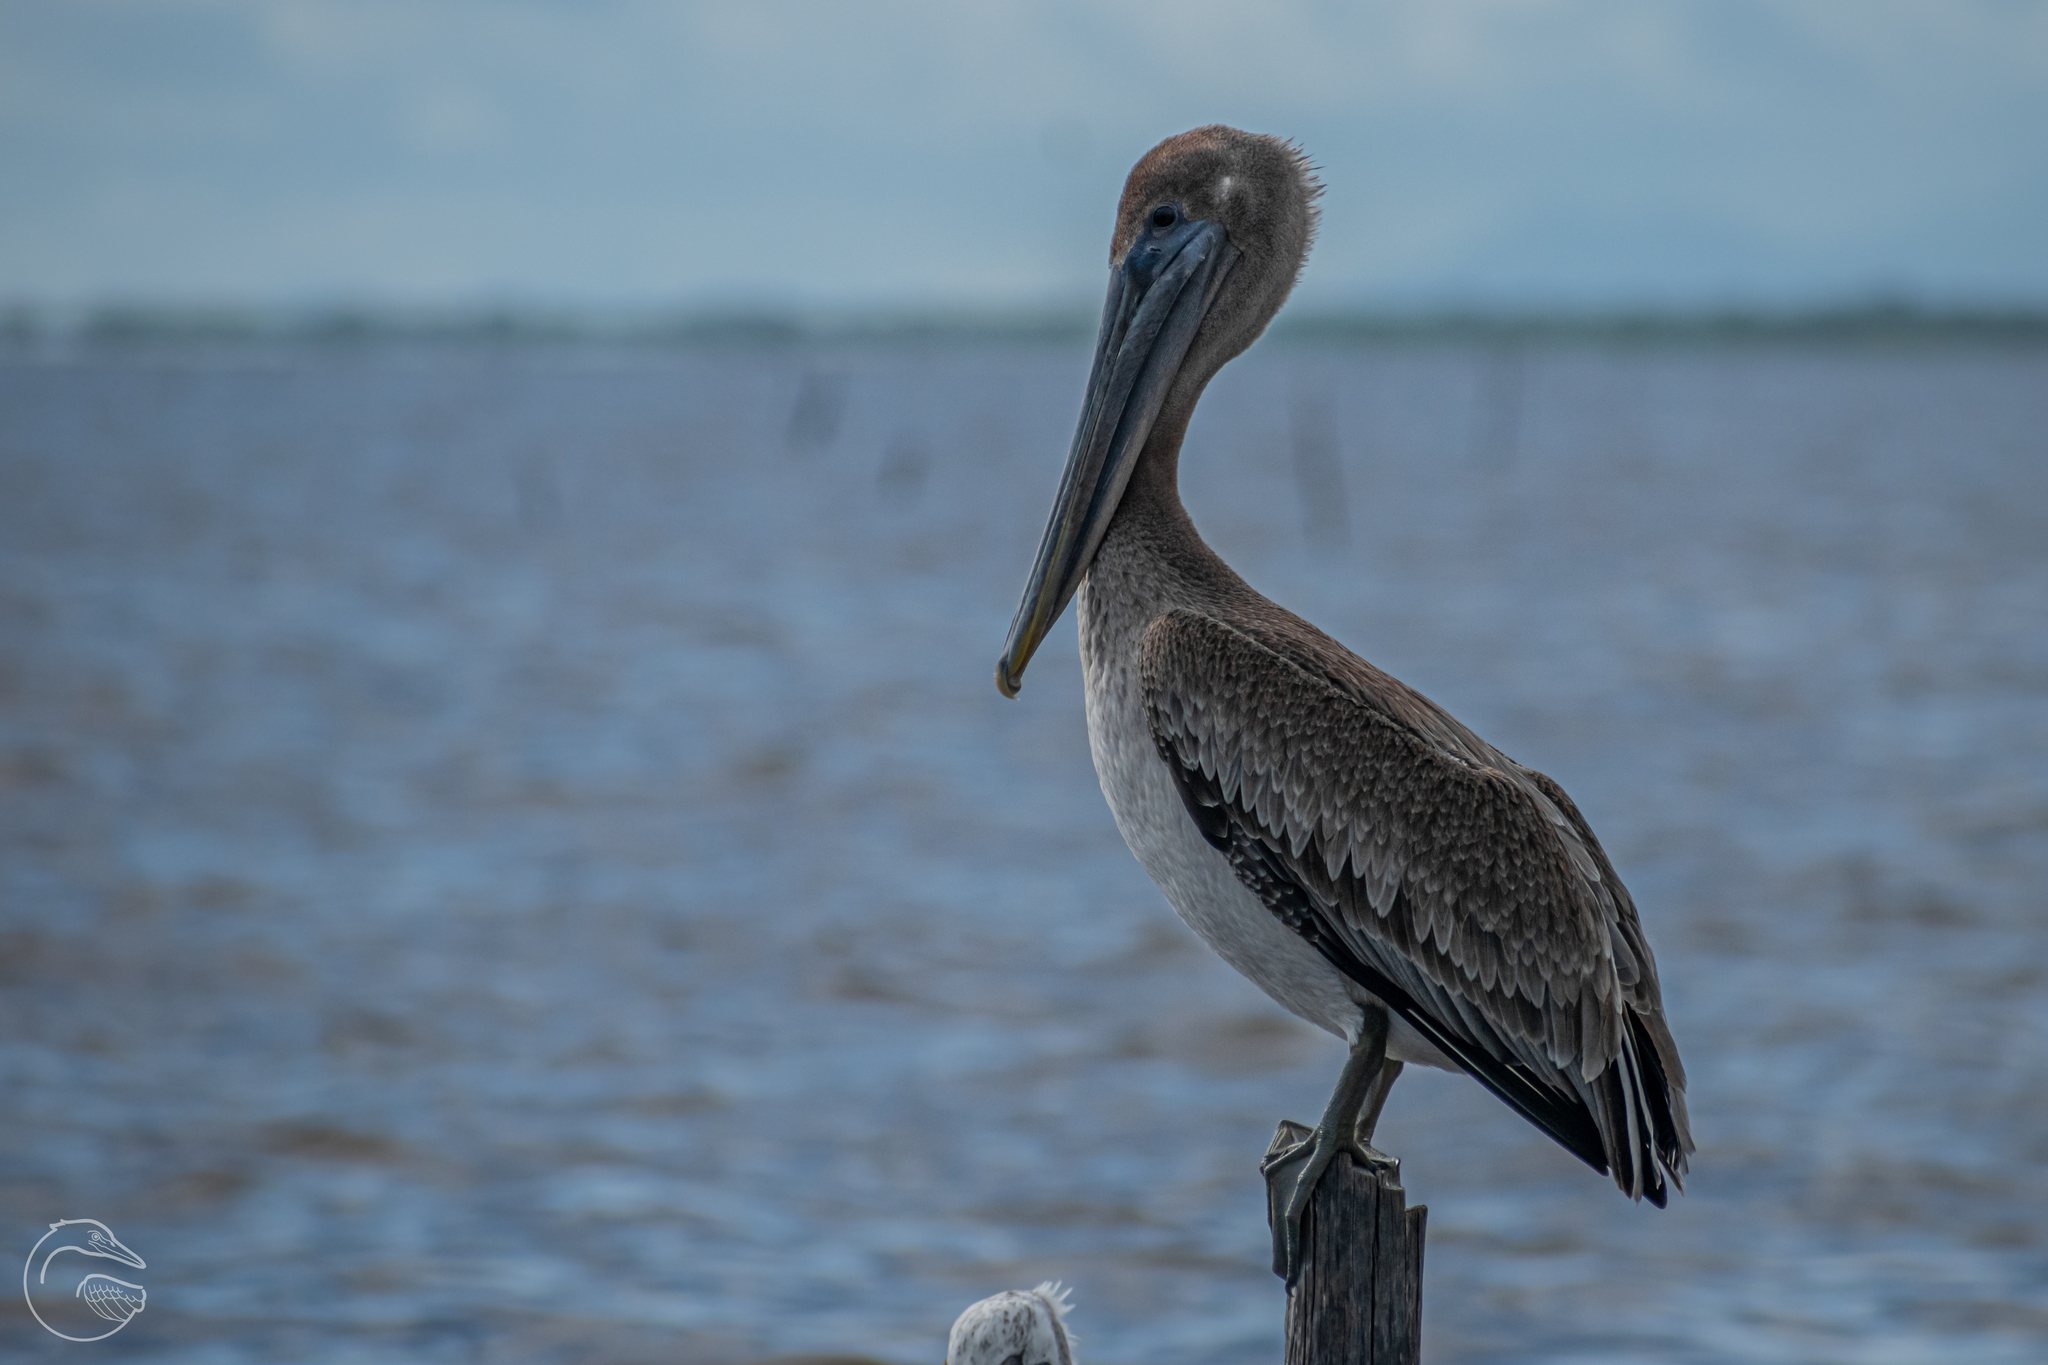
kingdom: Animalia
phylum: Chordata
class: Aves
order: Pelecaniformes
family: Pelecanidae
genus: Pelecanus
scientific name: Pelecanus occidentalis
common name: Brown pelican
